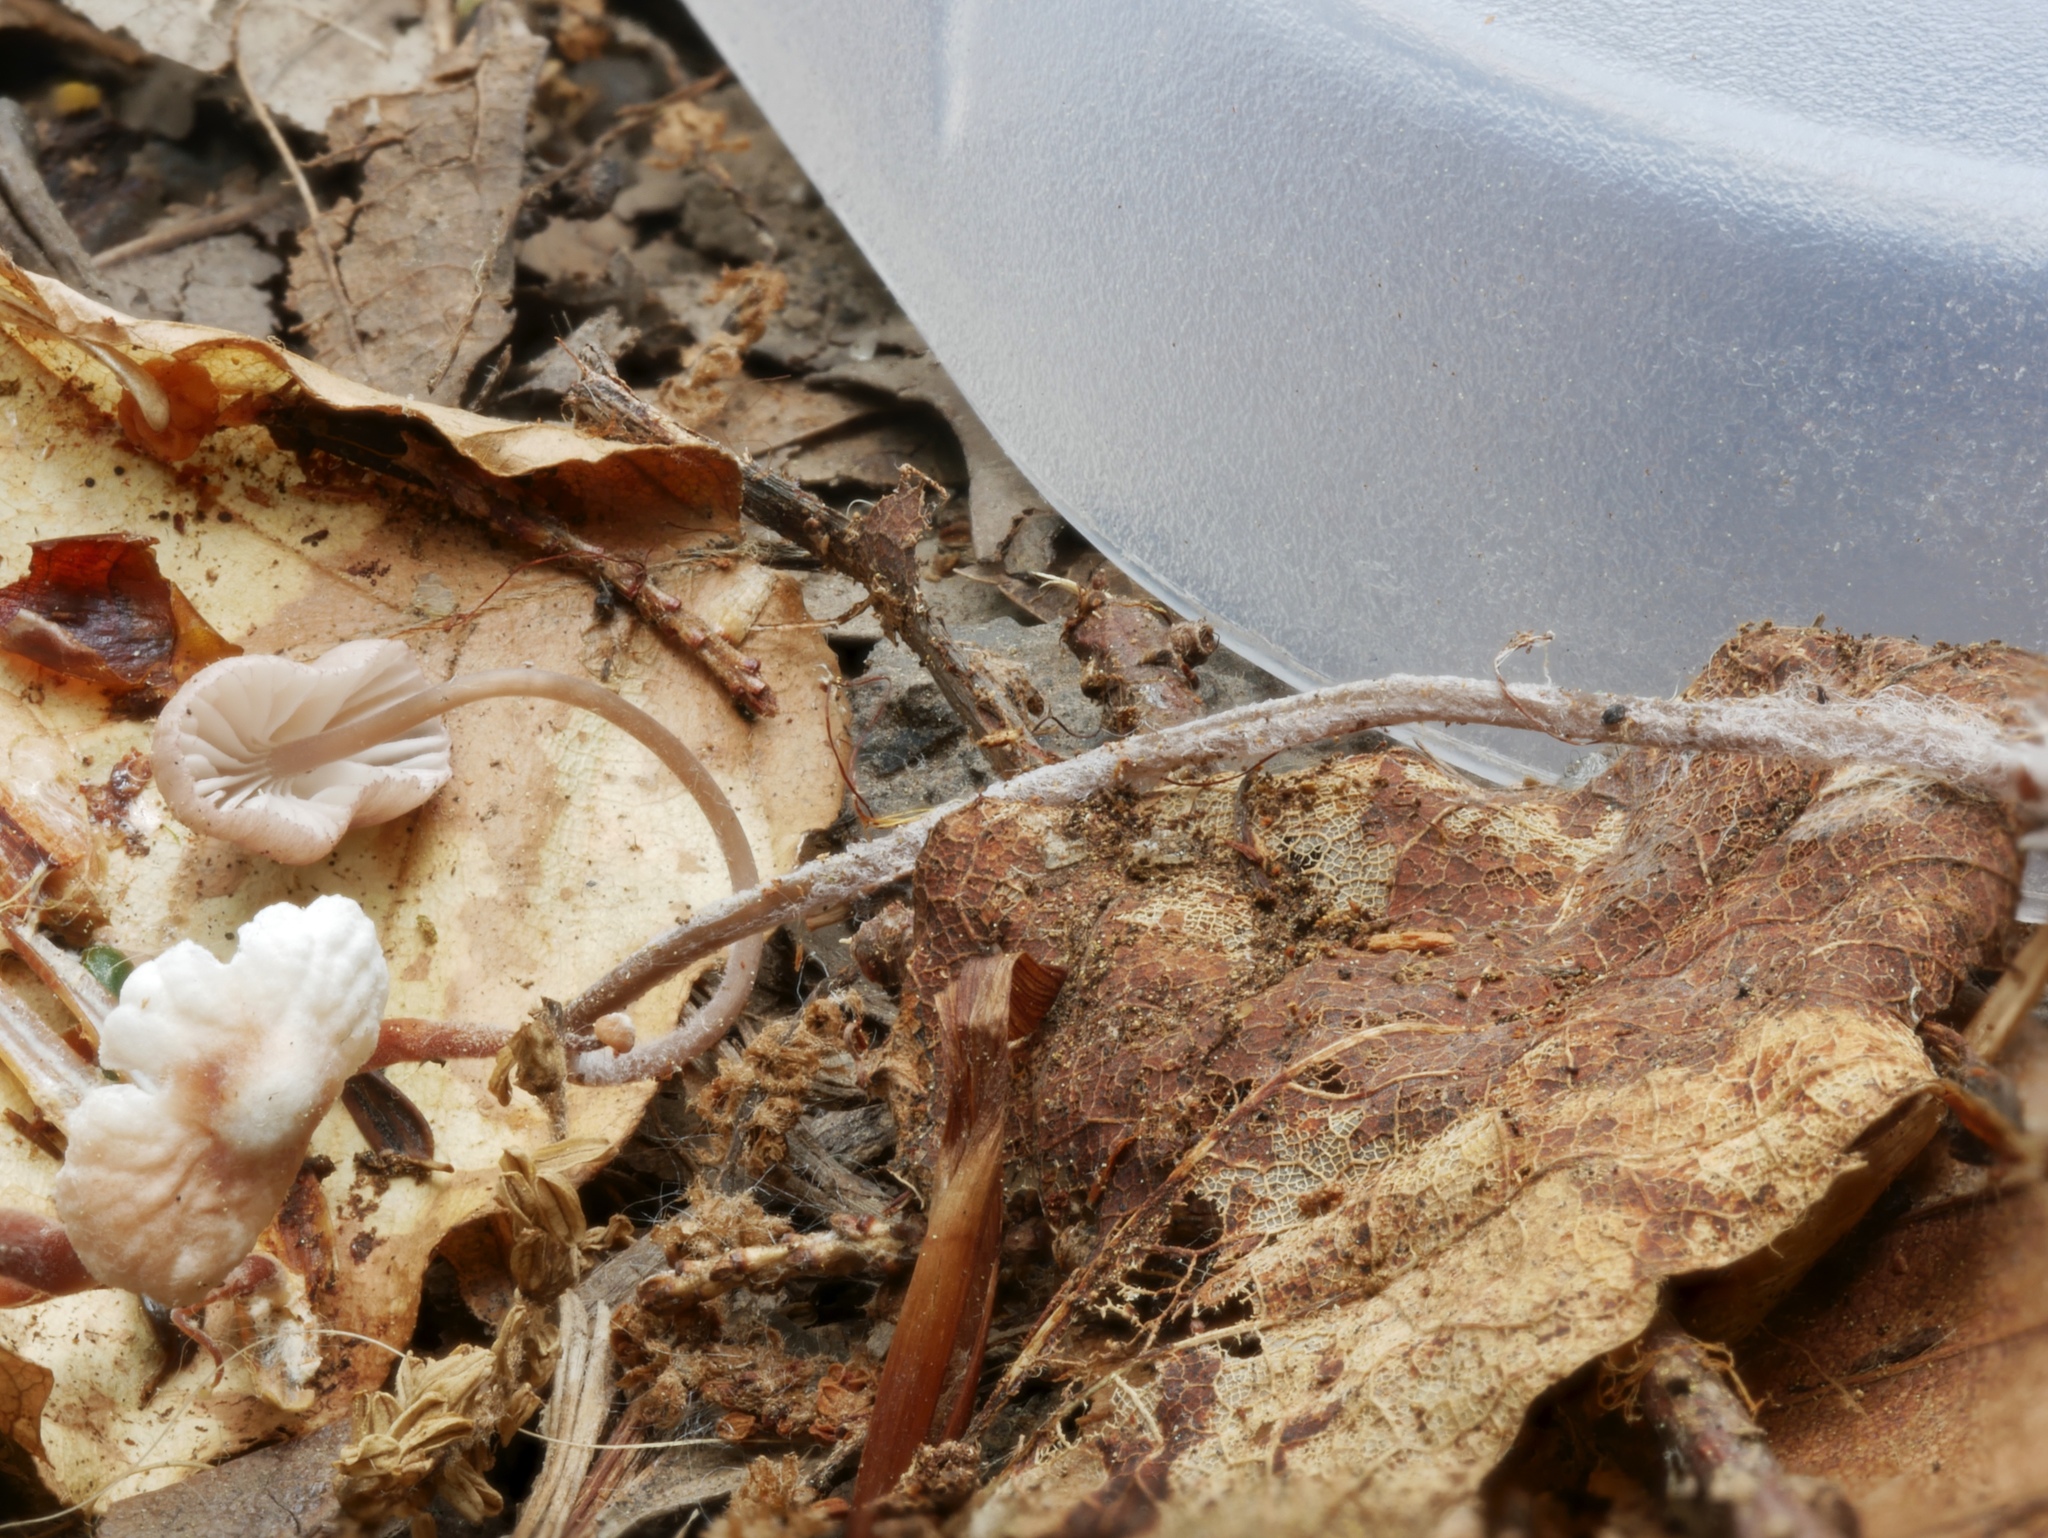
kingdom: Fungi
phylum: Basidiomycota
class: Agaricomycetes
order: Agaricales
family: Omphalotaceae
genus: Marasmiellus
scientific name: Marasmiellus praeacutus
